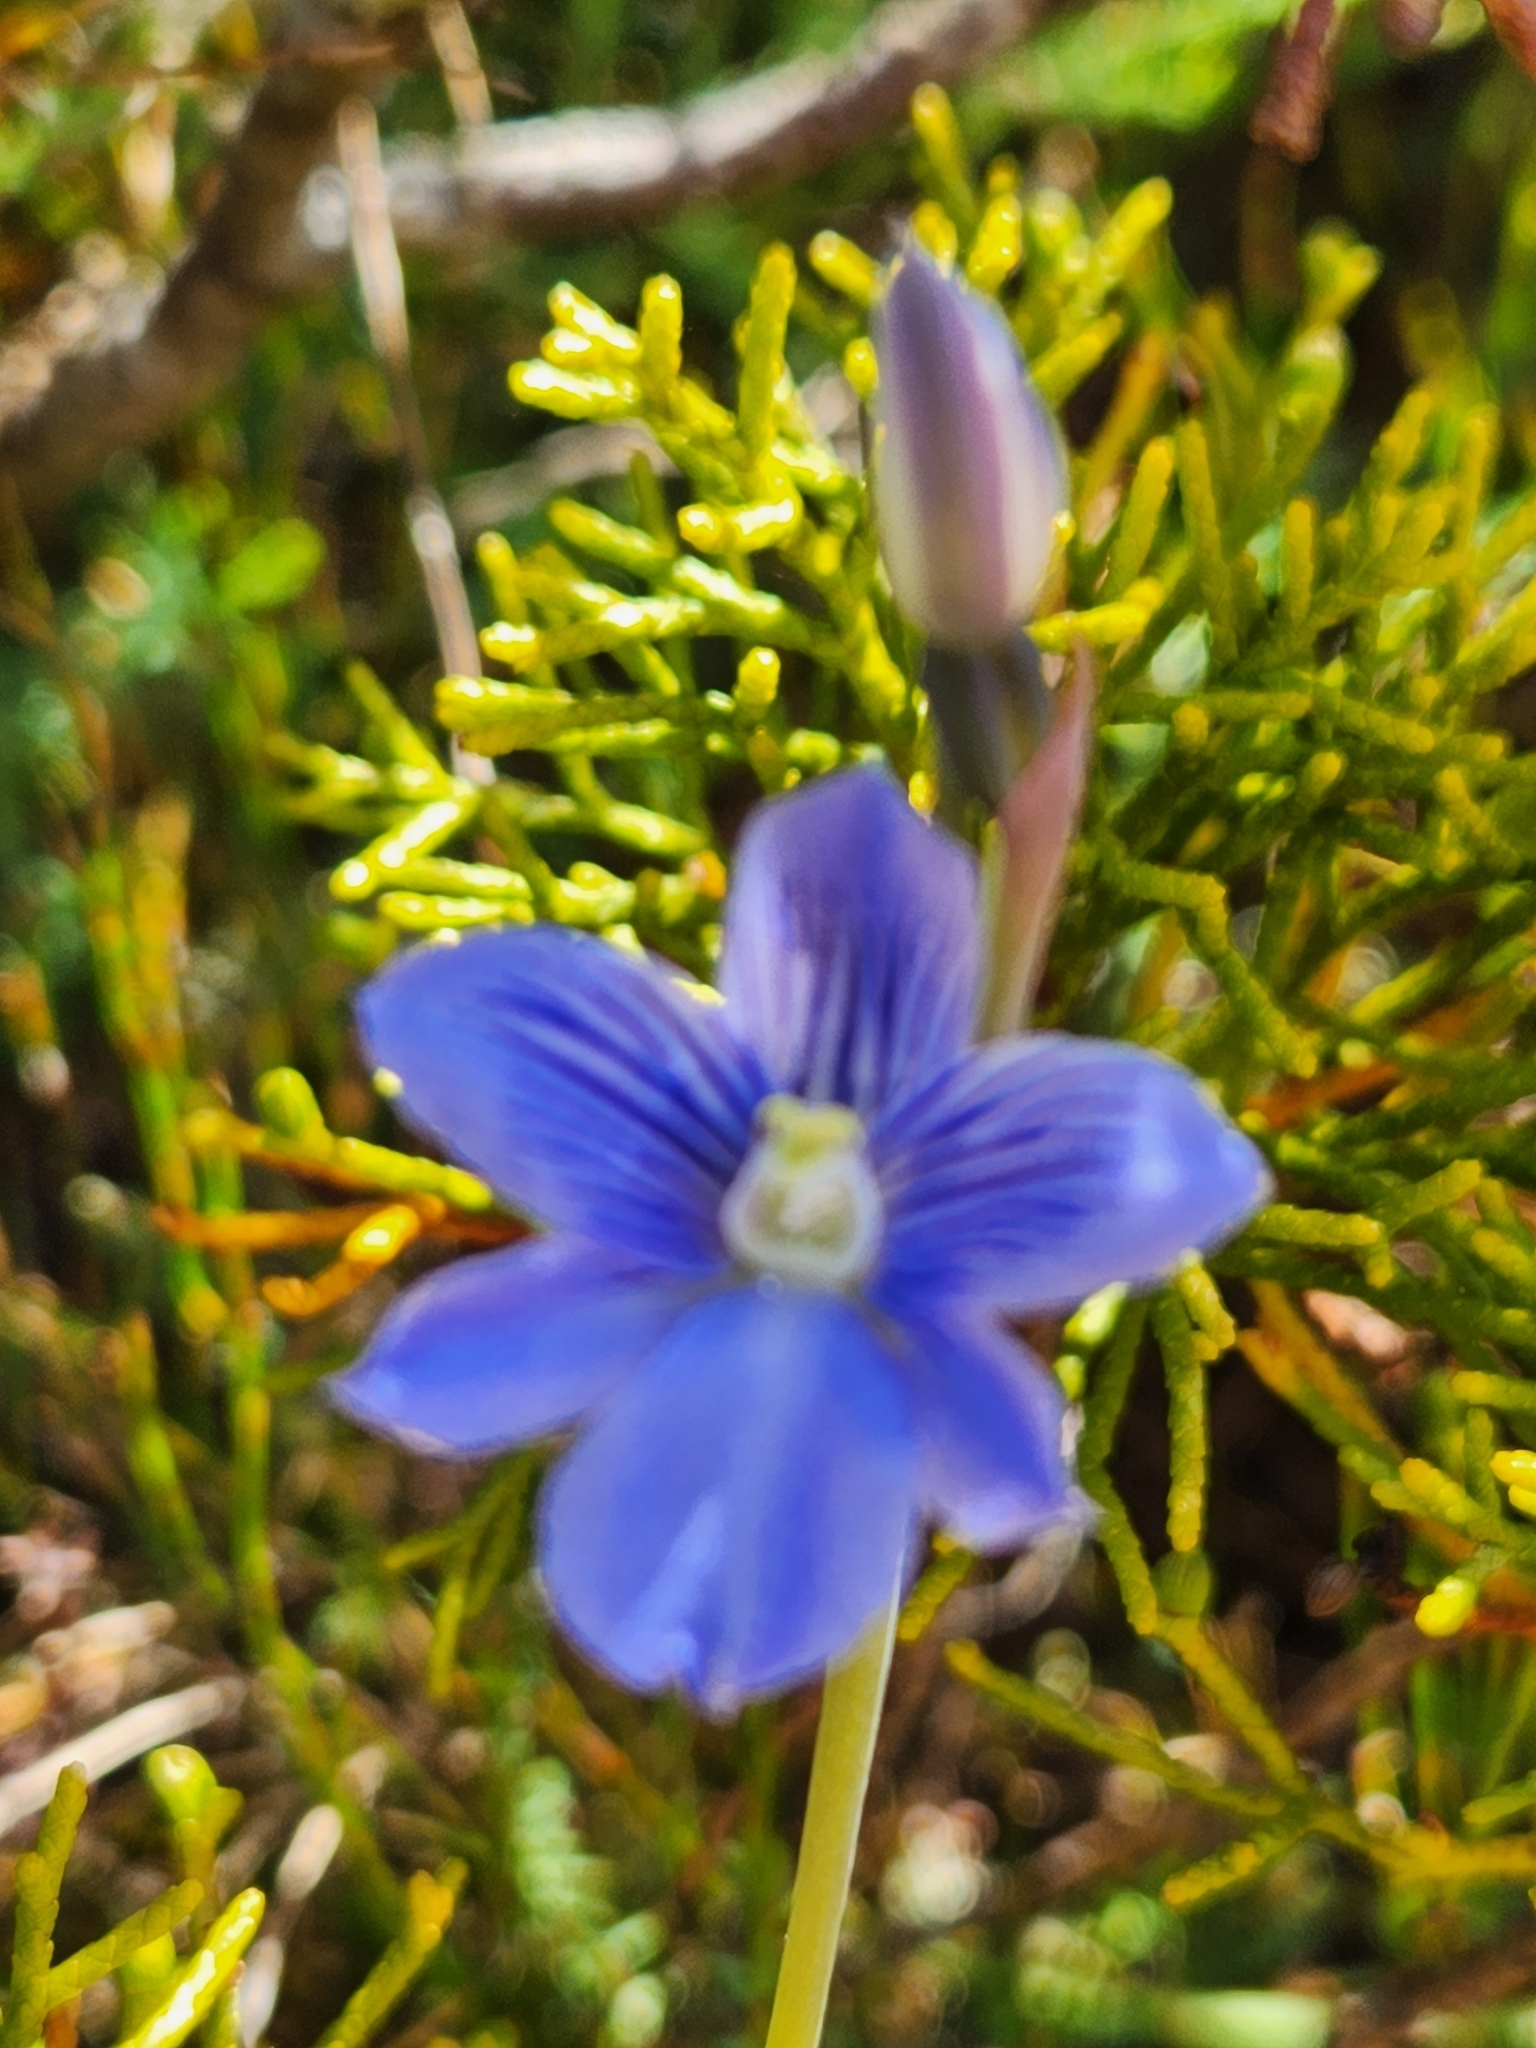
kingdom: Plantae
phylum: Tracheophyta
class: Liliopsida
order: Asparagales
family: Orchidaceae
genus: Thelymitra
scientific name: Thelymitra cyanea
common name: Blue sun-orchid
